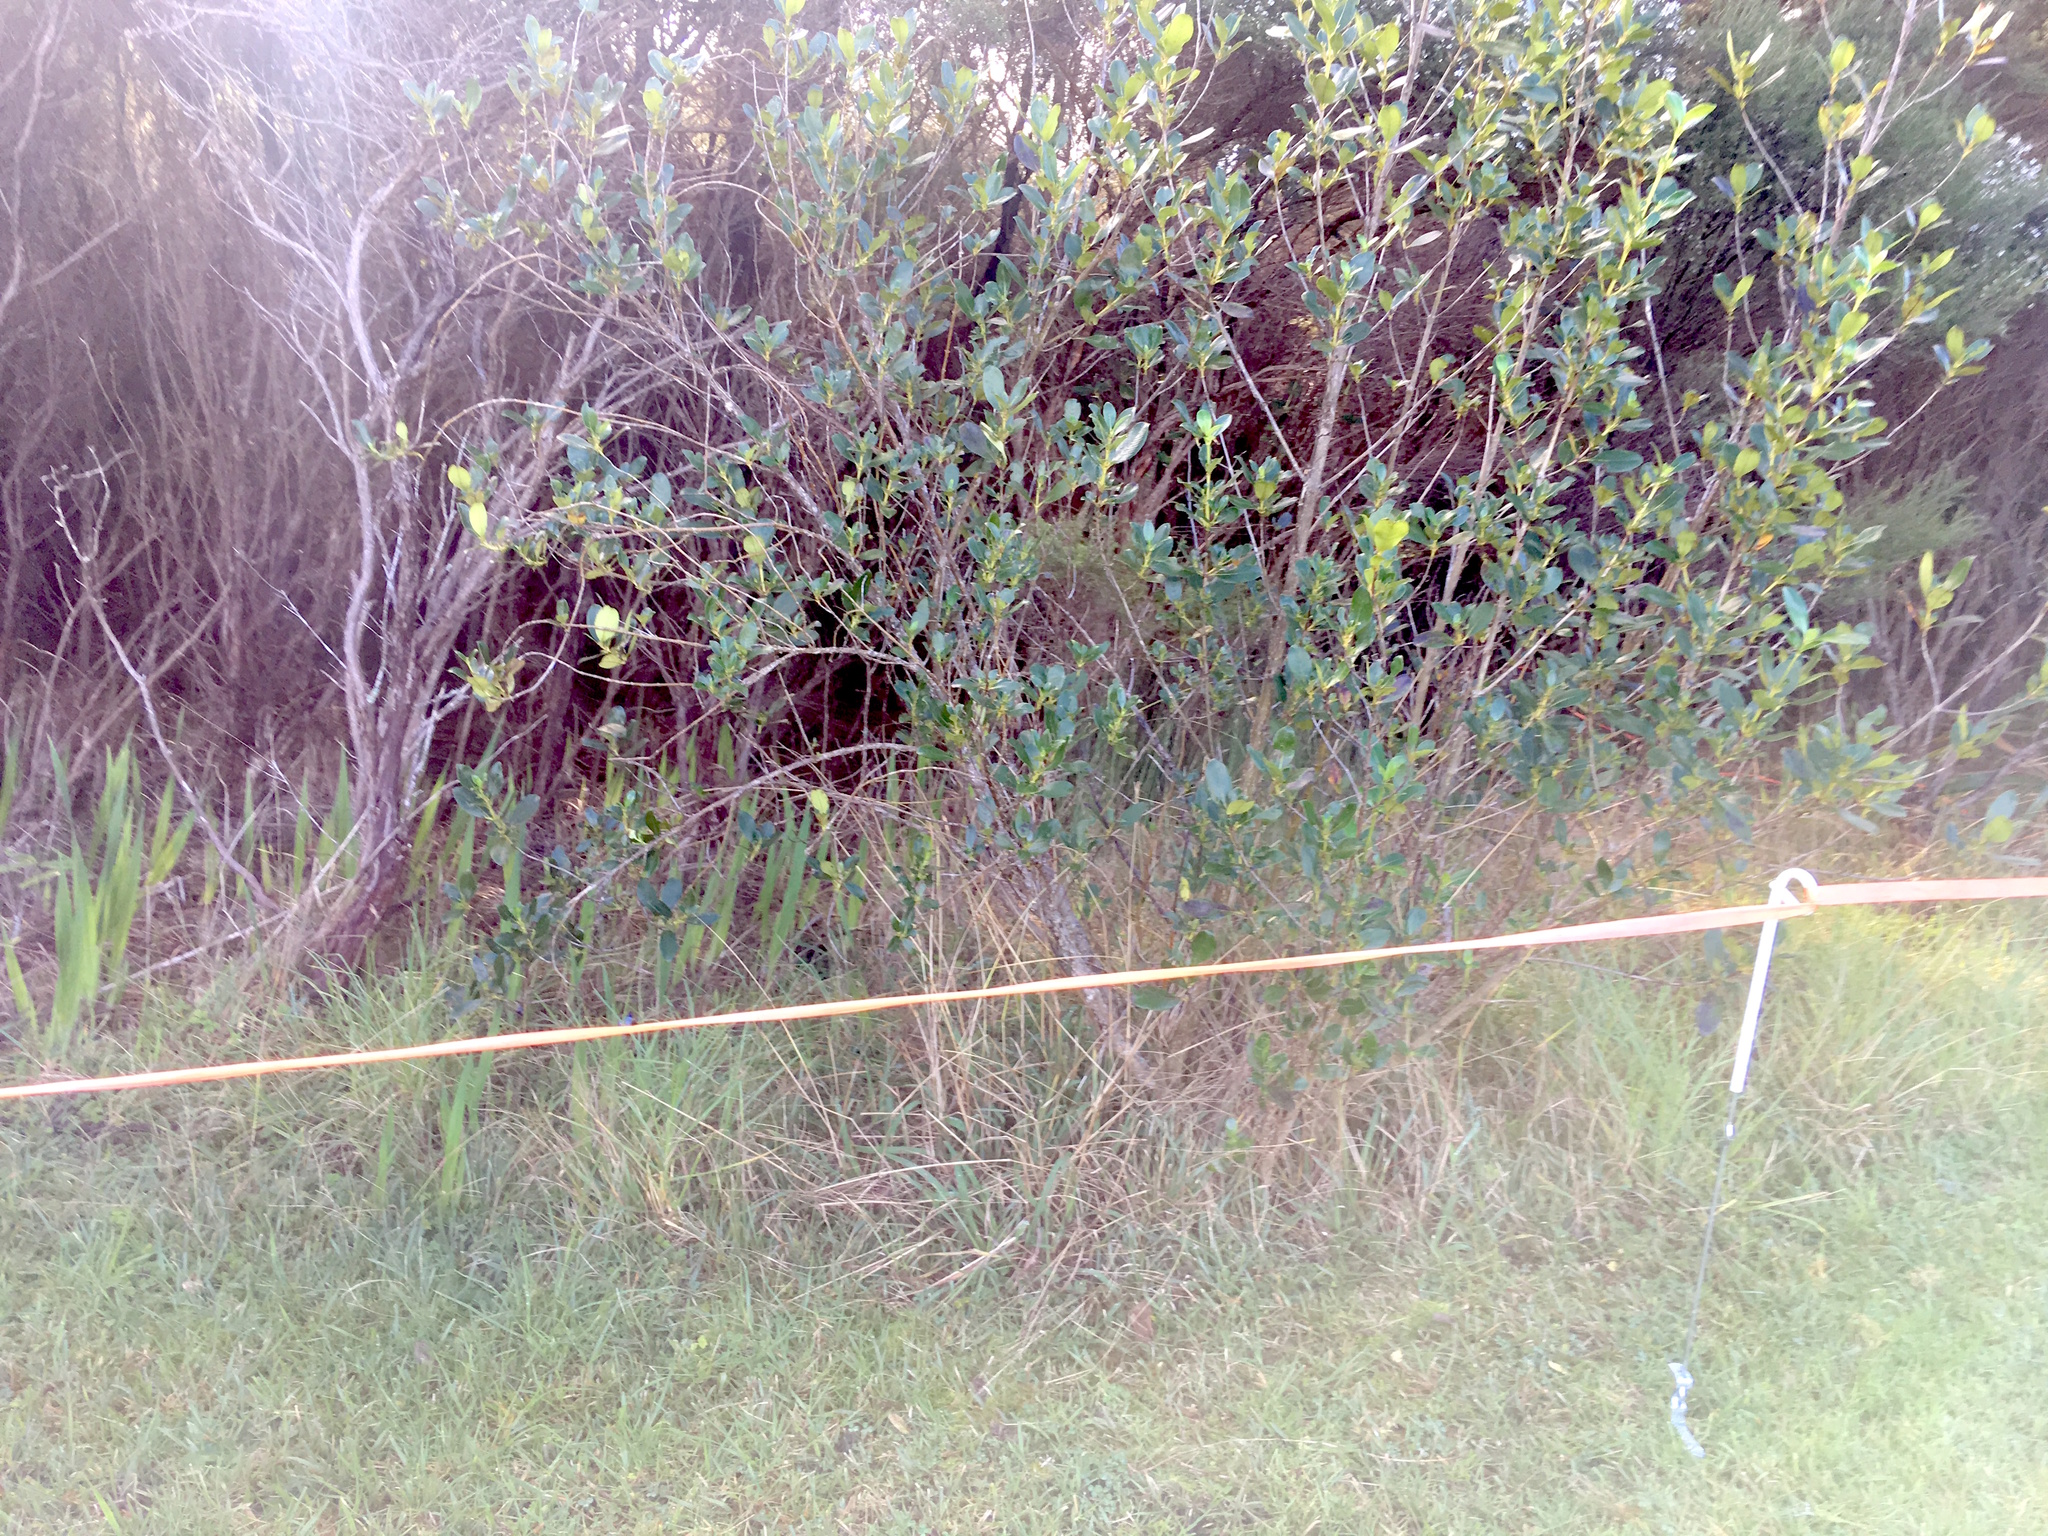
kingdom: Plantae
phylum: Tracheophyta
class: Magnoliopsida
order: Gentianales
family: Rubiaceae
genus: Coprosma
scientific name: Coprosma robusta
